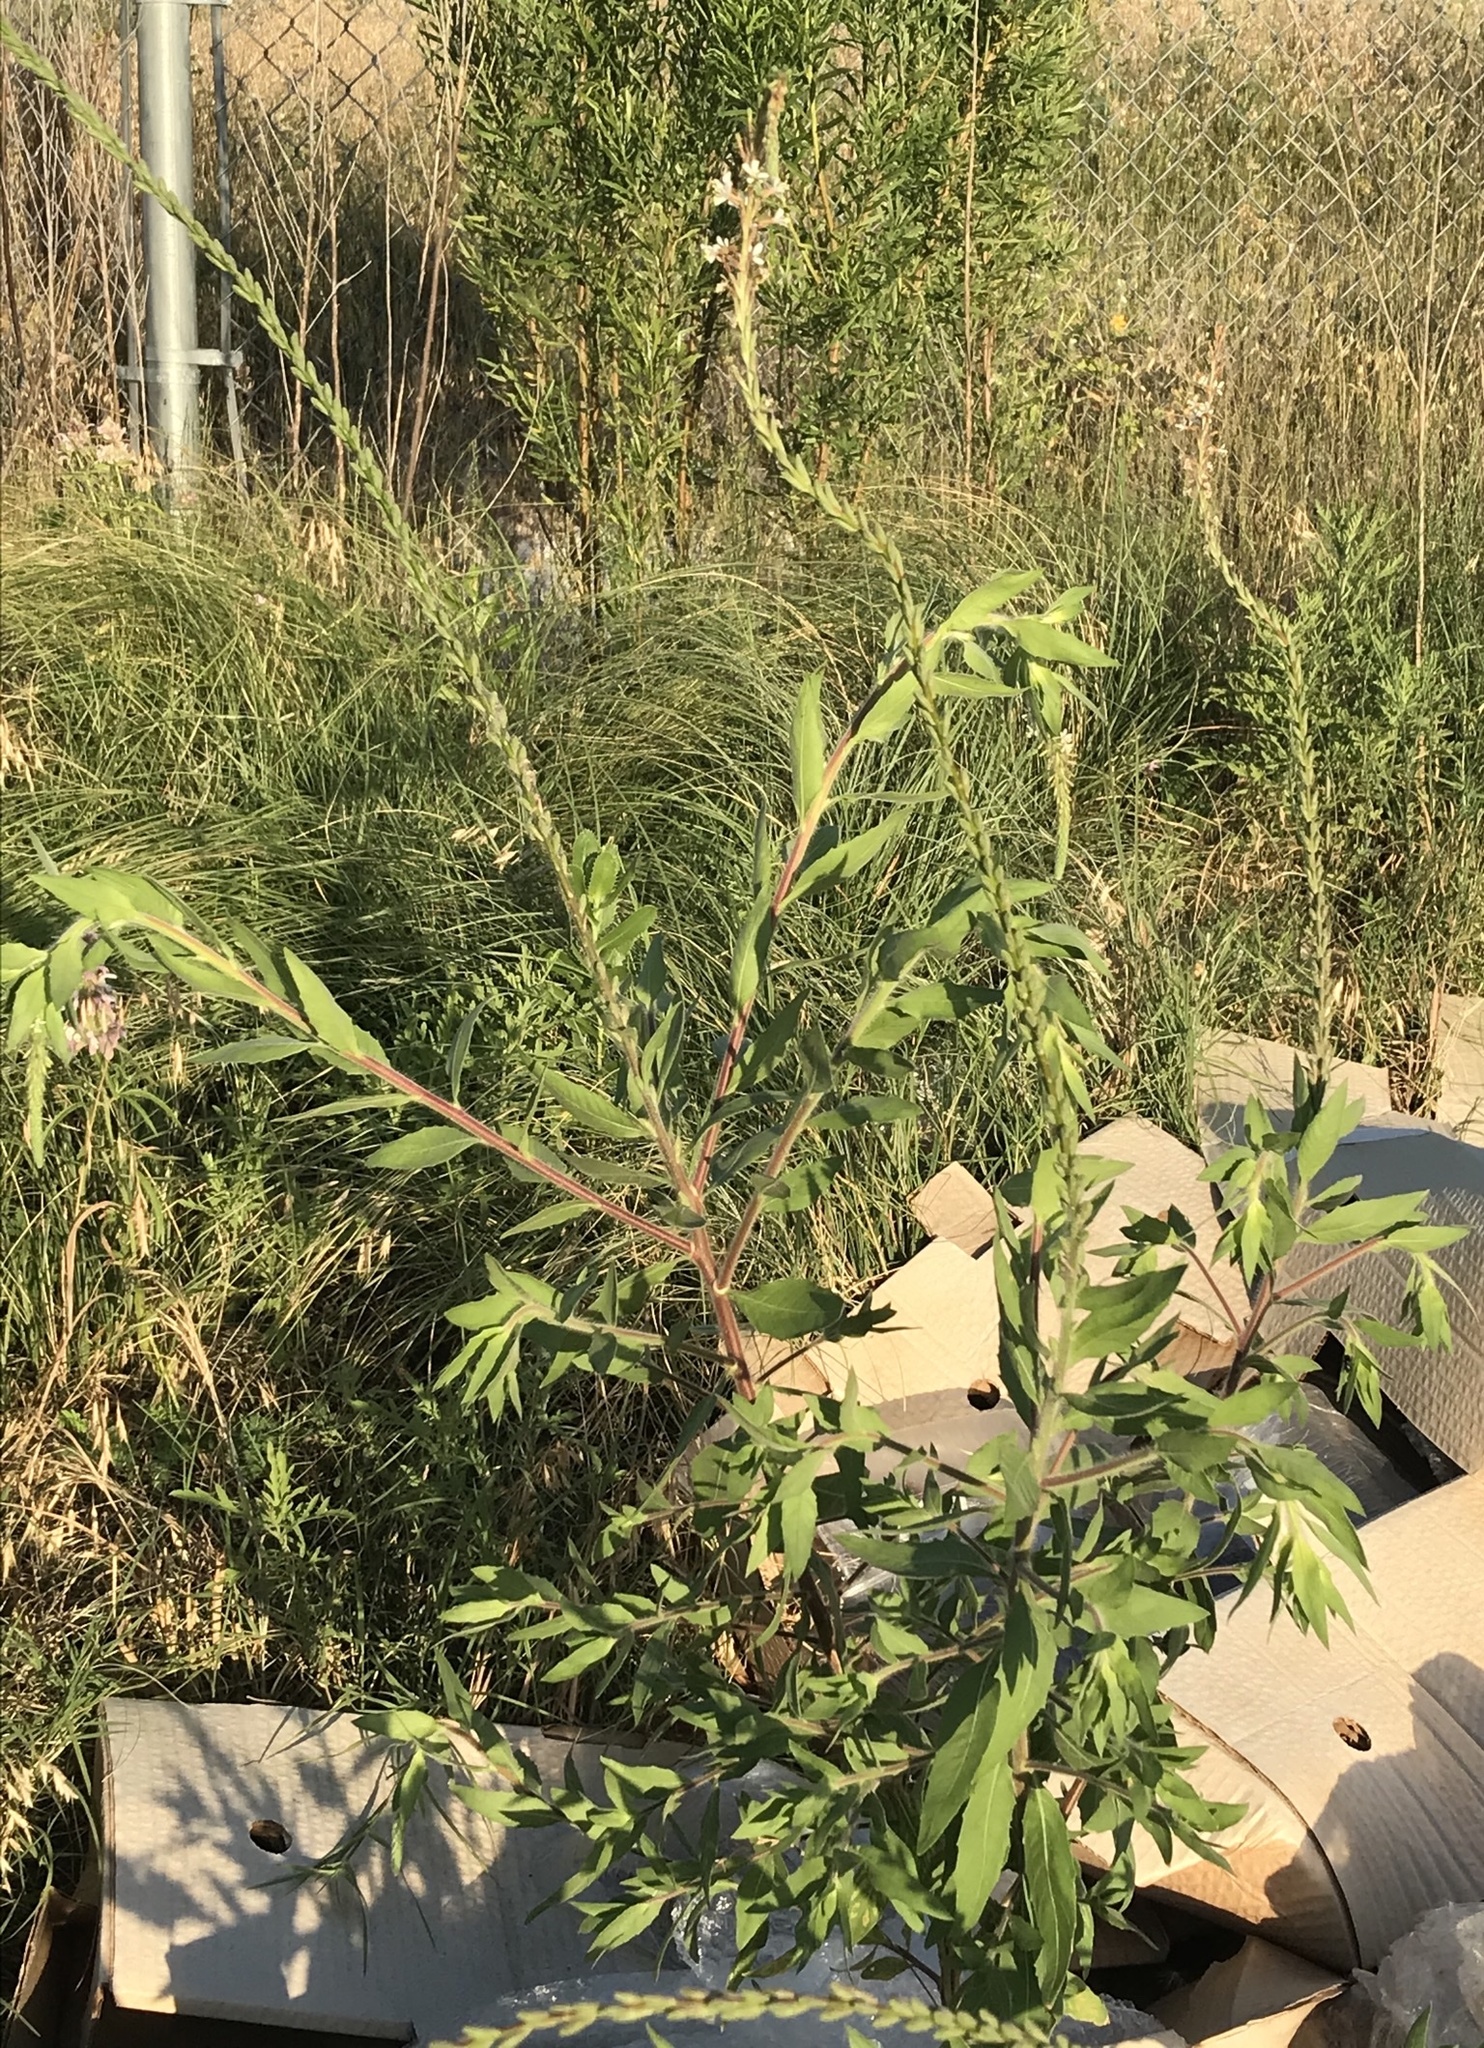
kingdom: Plantae
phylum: Tracheophyta
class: Magnoliopsida
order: Myrtales
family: Onagraceae
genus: Oenothera
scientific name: Oenothera curtiflora
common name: Velvetweed
